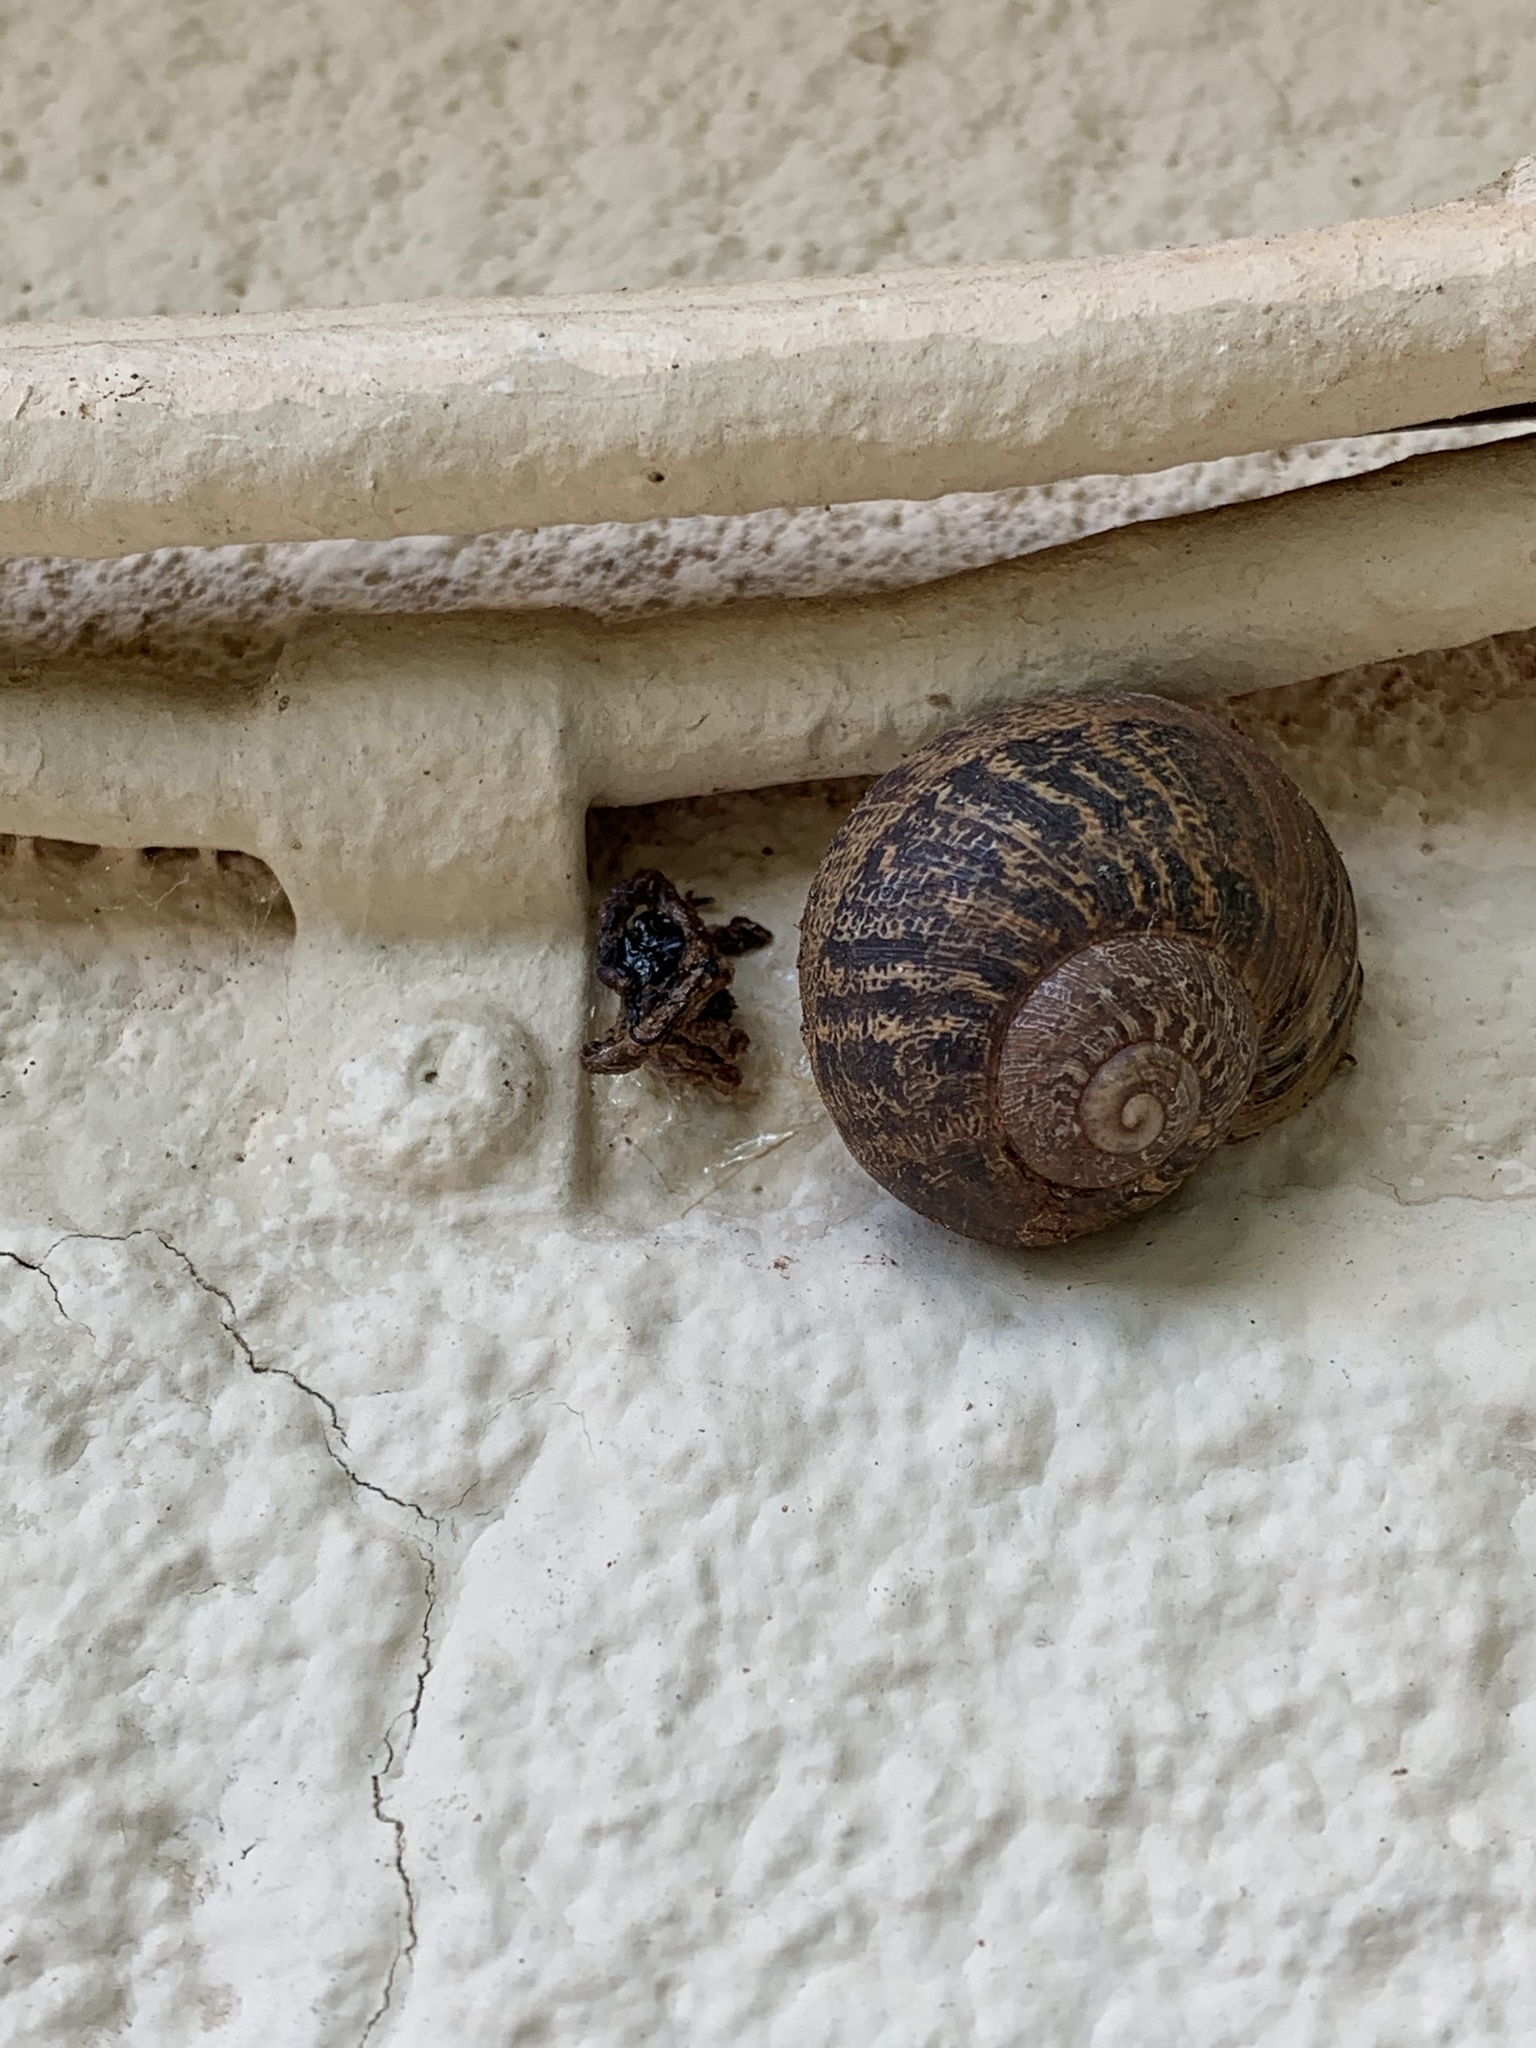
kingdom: Animalia
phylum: Mollusca
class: Gastropoda
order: Stylommatophora
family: Helicidae
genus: Cornu
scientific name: Cornu aspersum
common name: Brown garden snail
